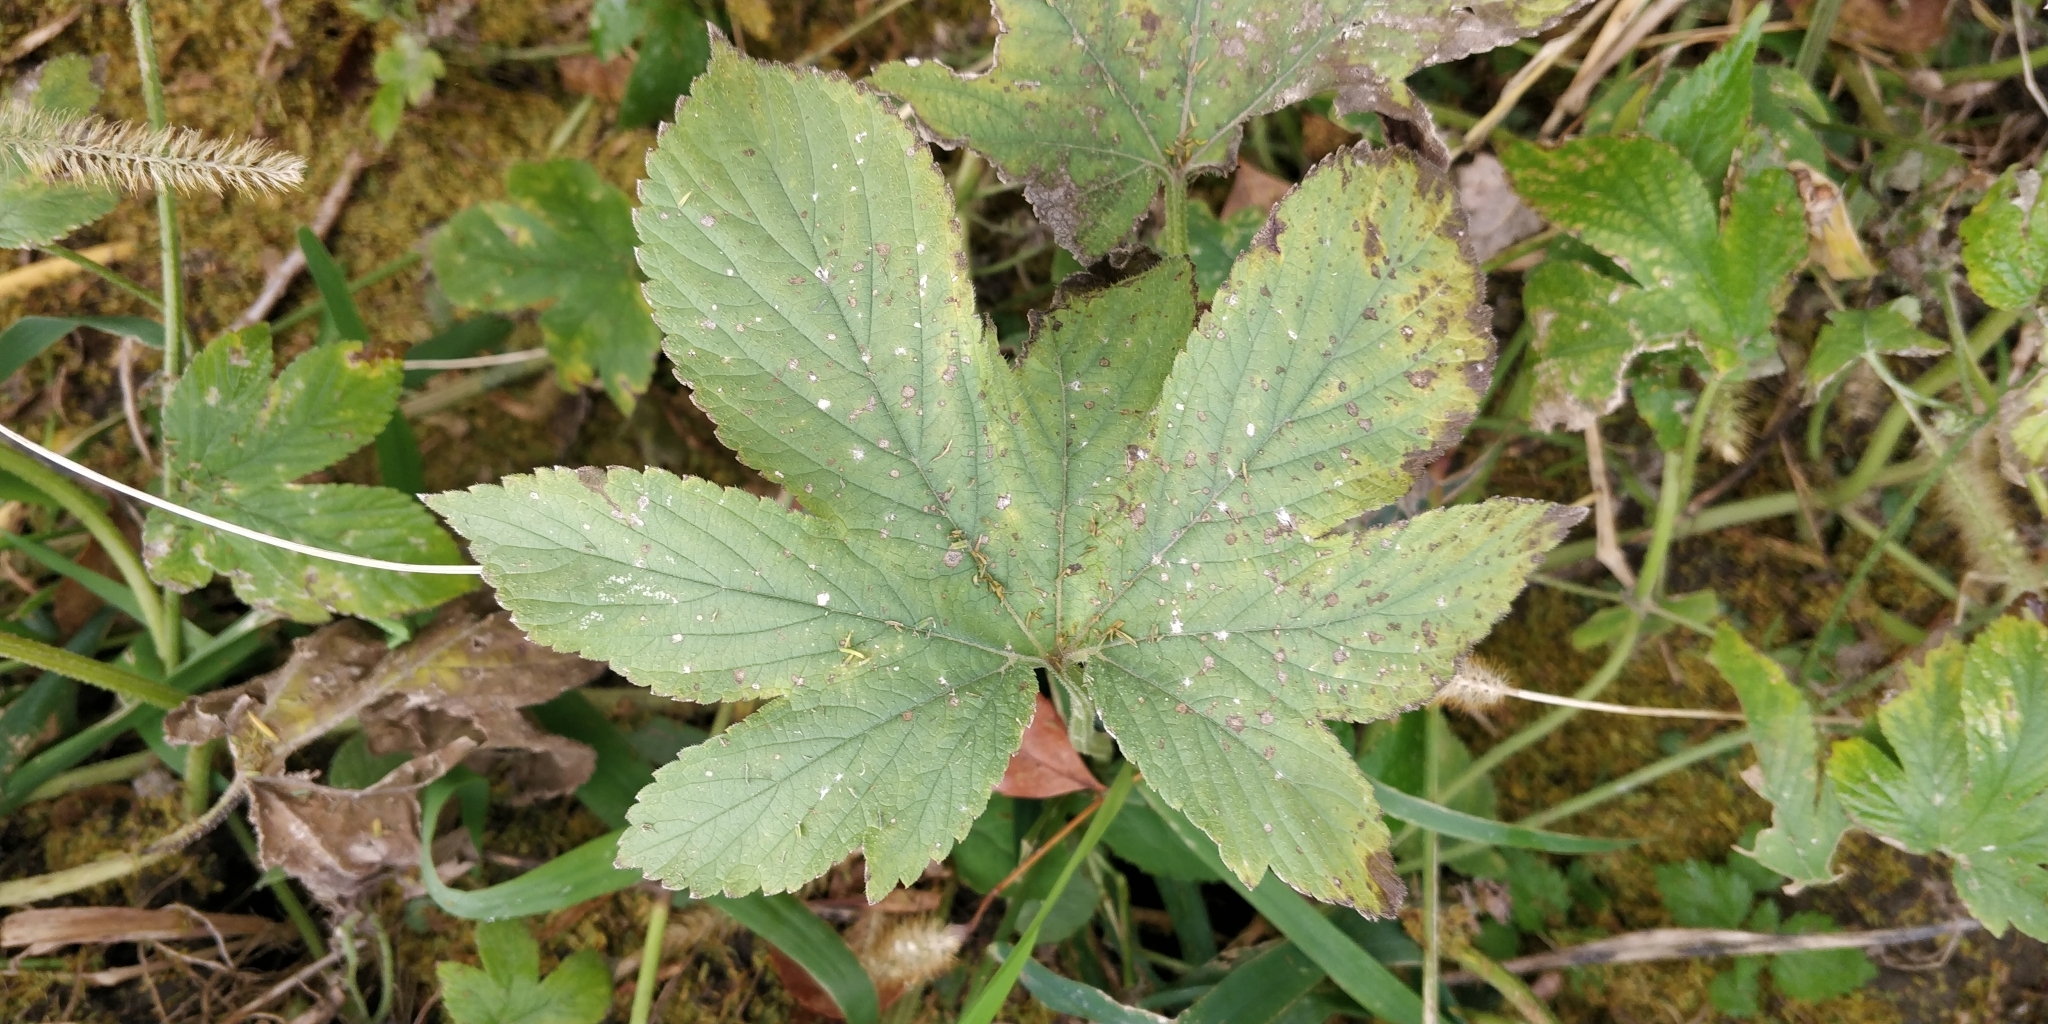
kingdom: Plantae
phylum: Tracheophyta
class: Magnoliopsida
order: Rosales
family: Cannabaceae
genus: Humulus
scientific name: Humulus scandens
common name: Japanese hop
